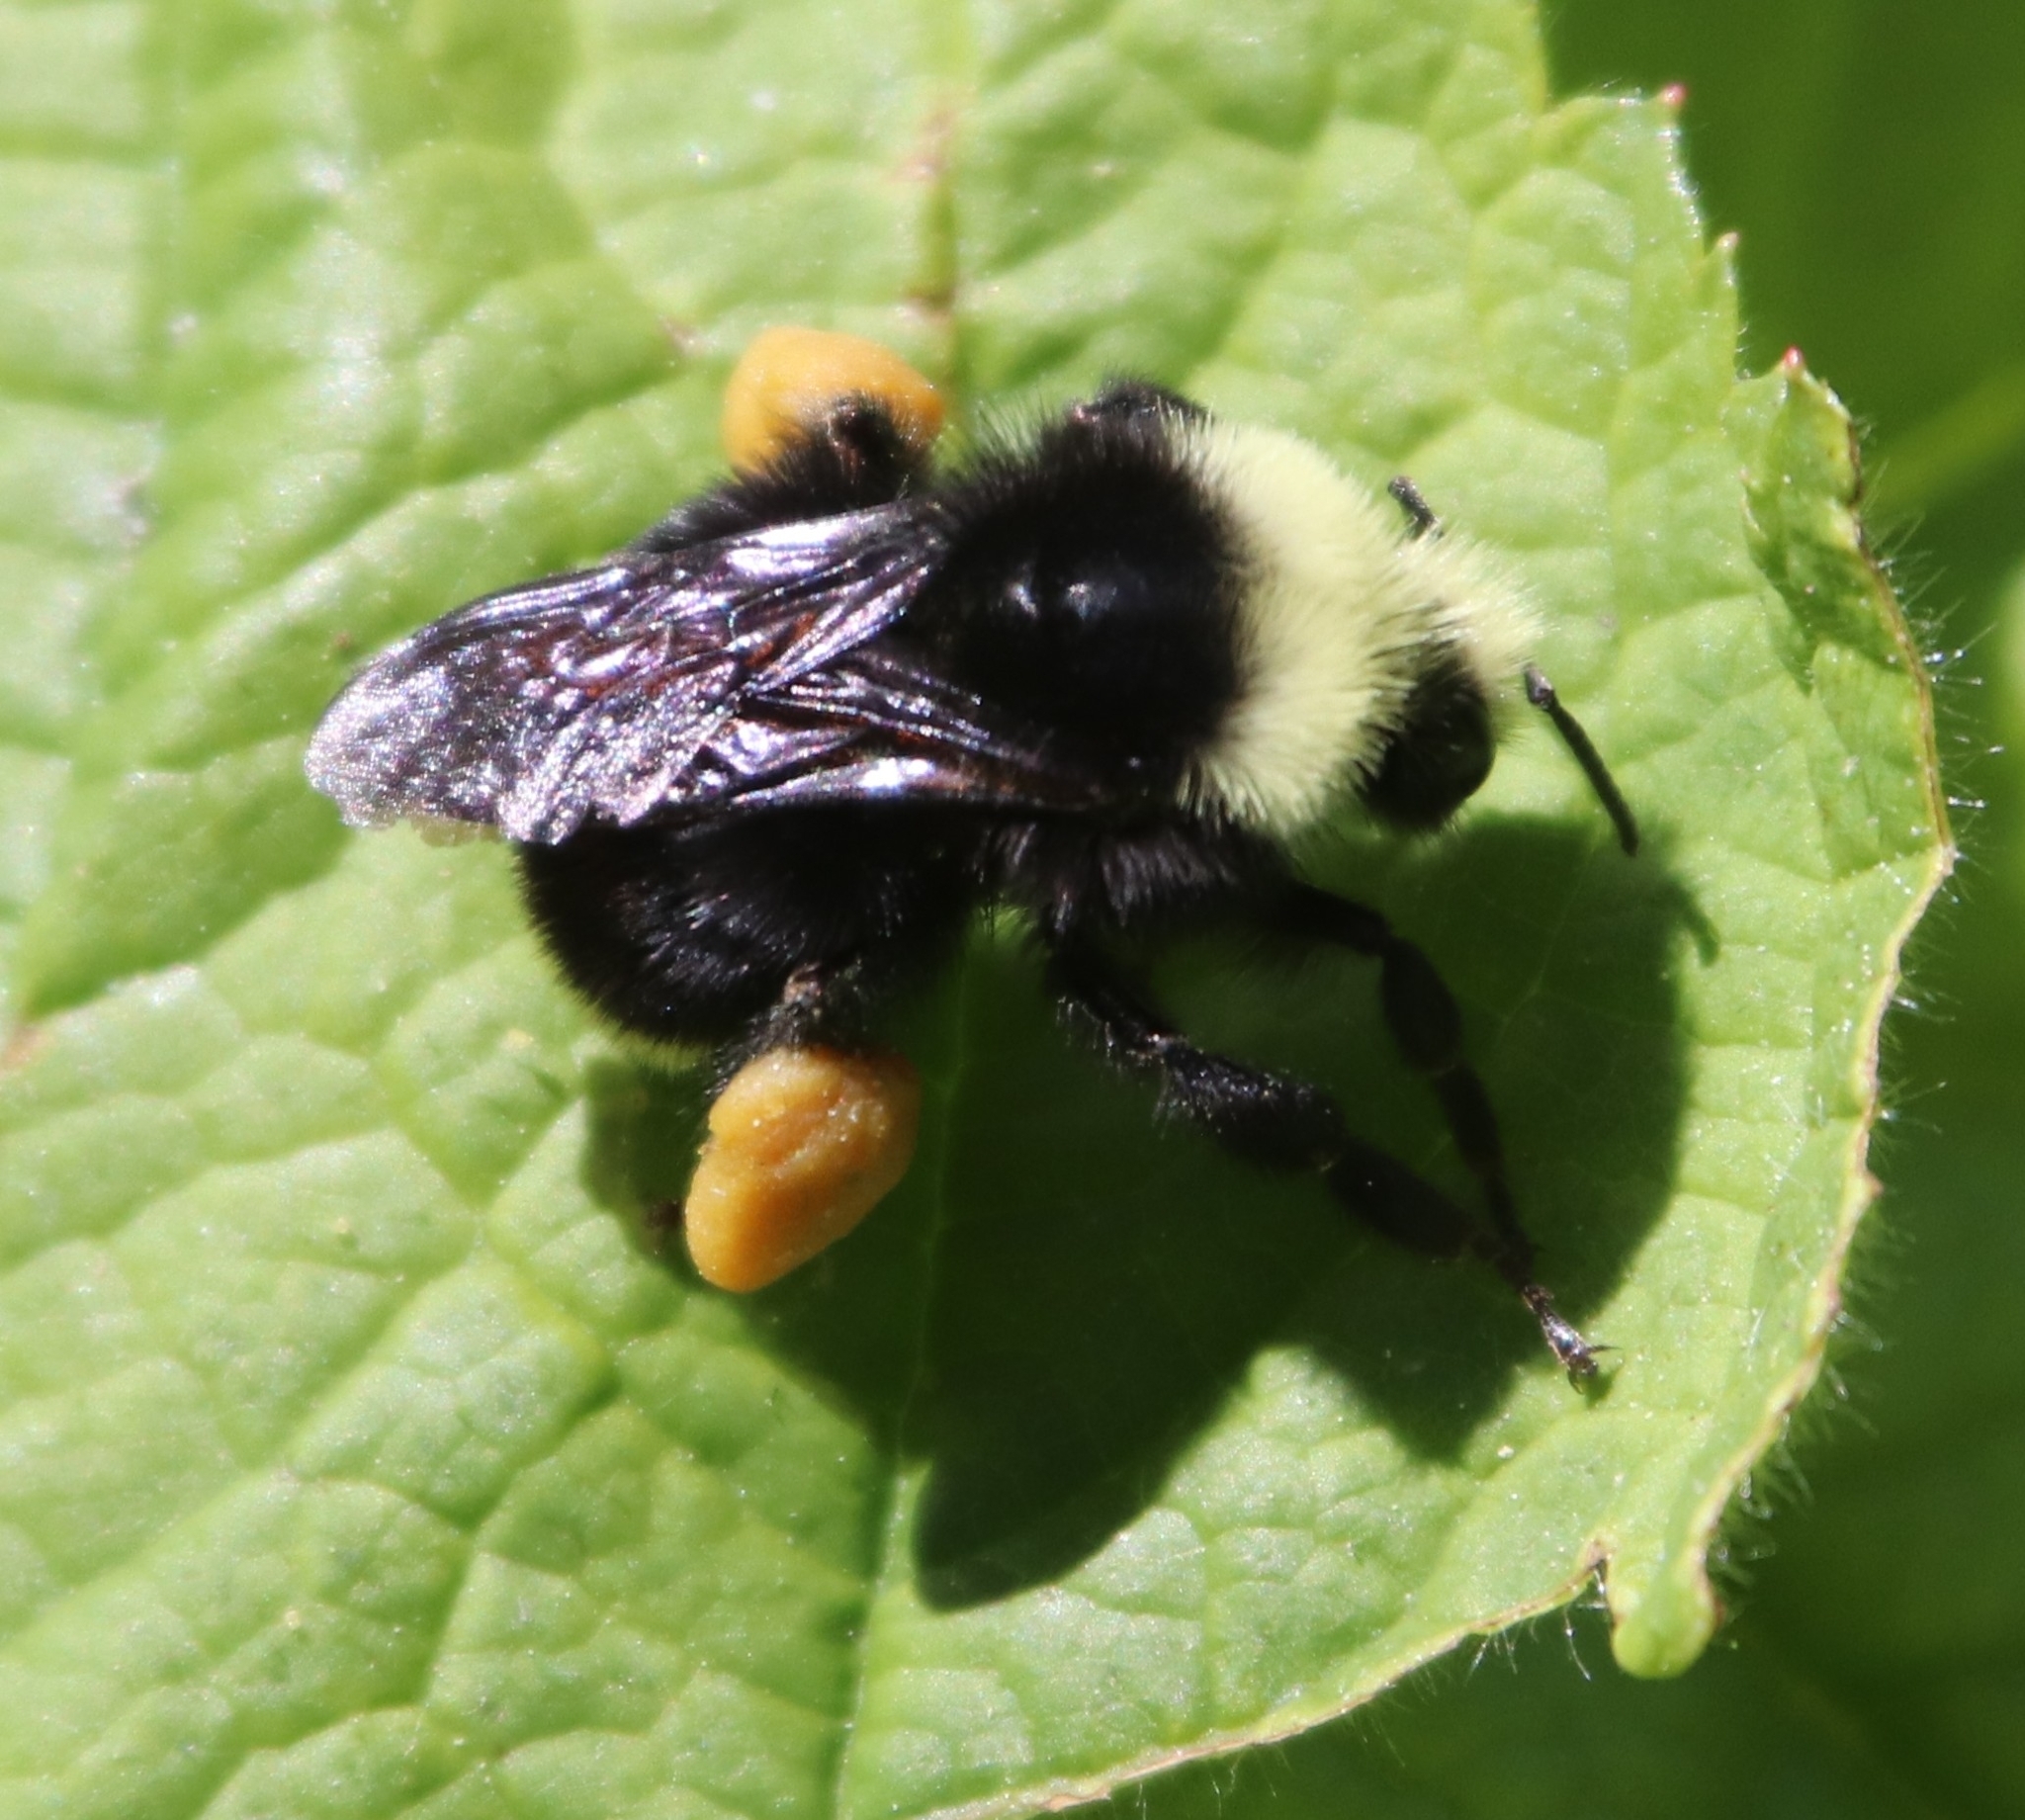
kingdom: Animalia
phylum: Arthropoda
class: Insecta
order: Hymenoptera
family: Apidae
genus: Bombus
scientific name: Bombus vosnesenskii
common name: Vosnesensky bumble bee
